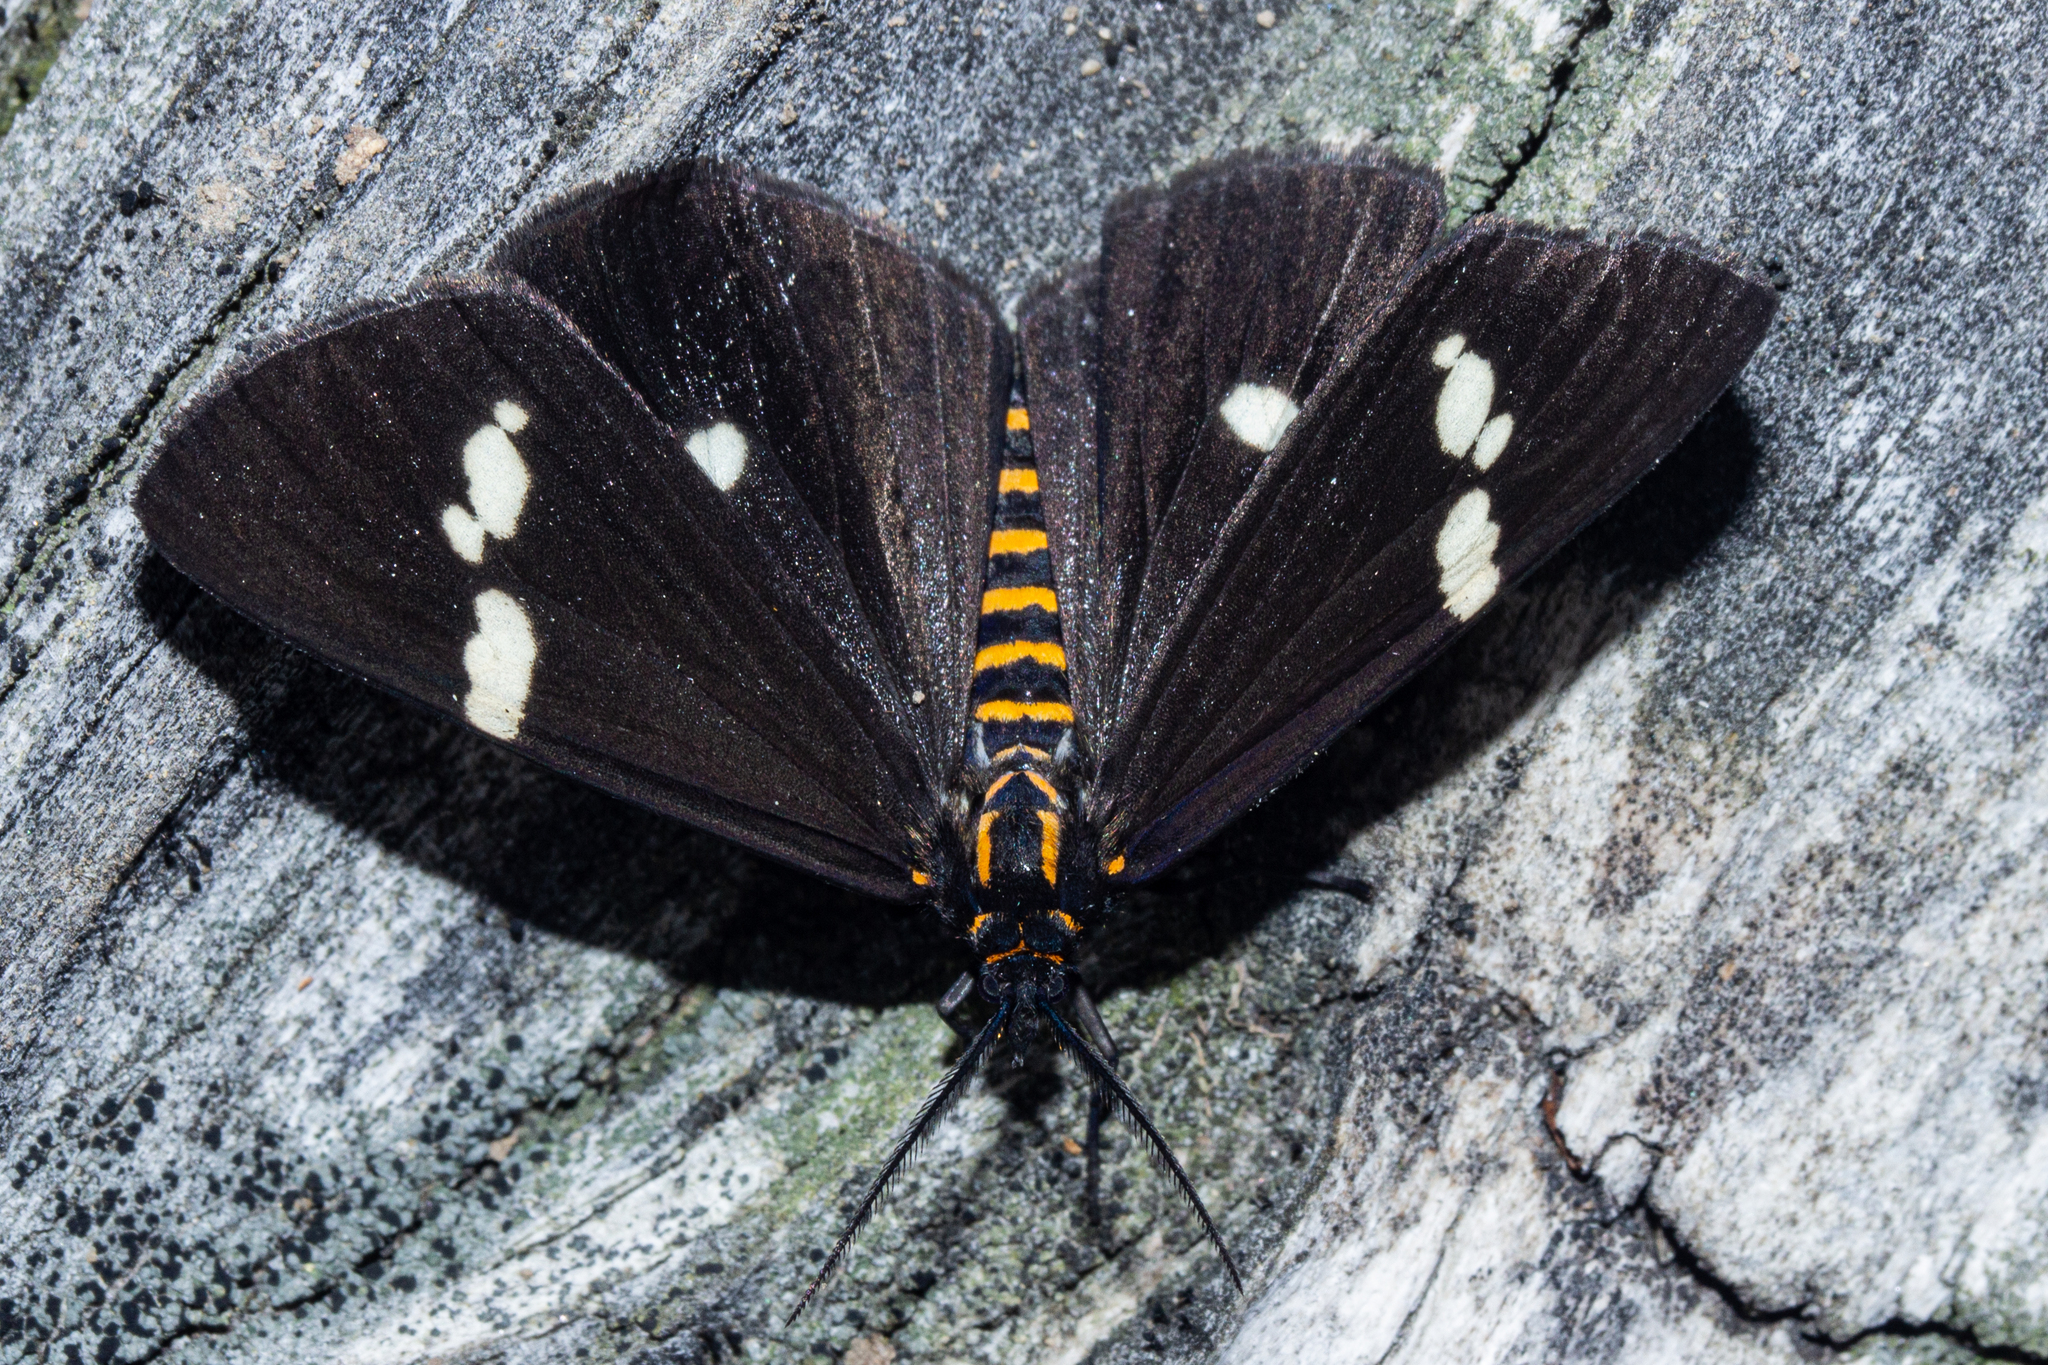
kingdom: Animalia
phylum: Arthropoda
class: Insecta
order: Lepidoptera
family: Erebidae
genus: Nyctemera
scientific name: Nyctemera annulatum
